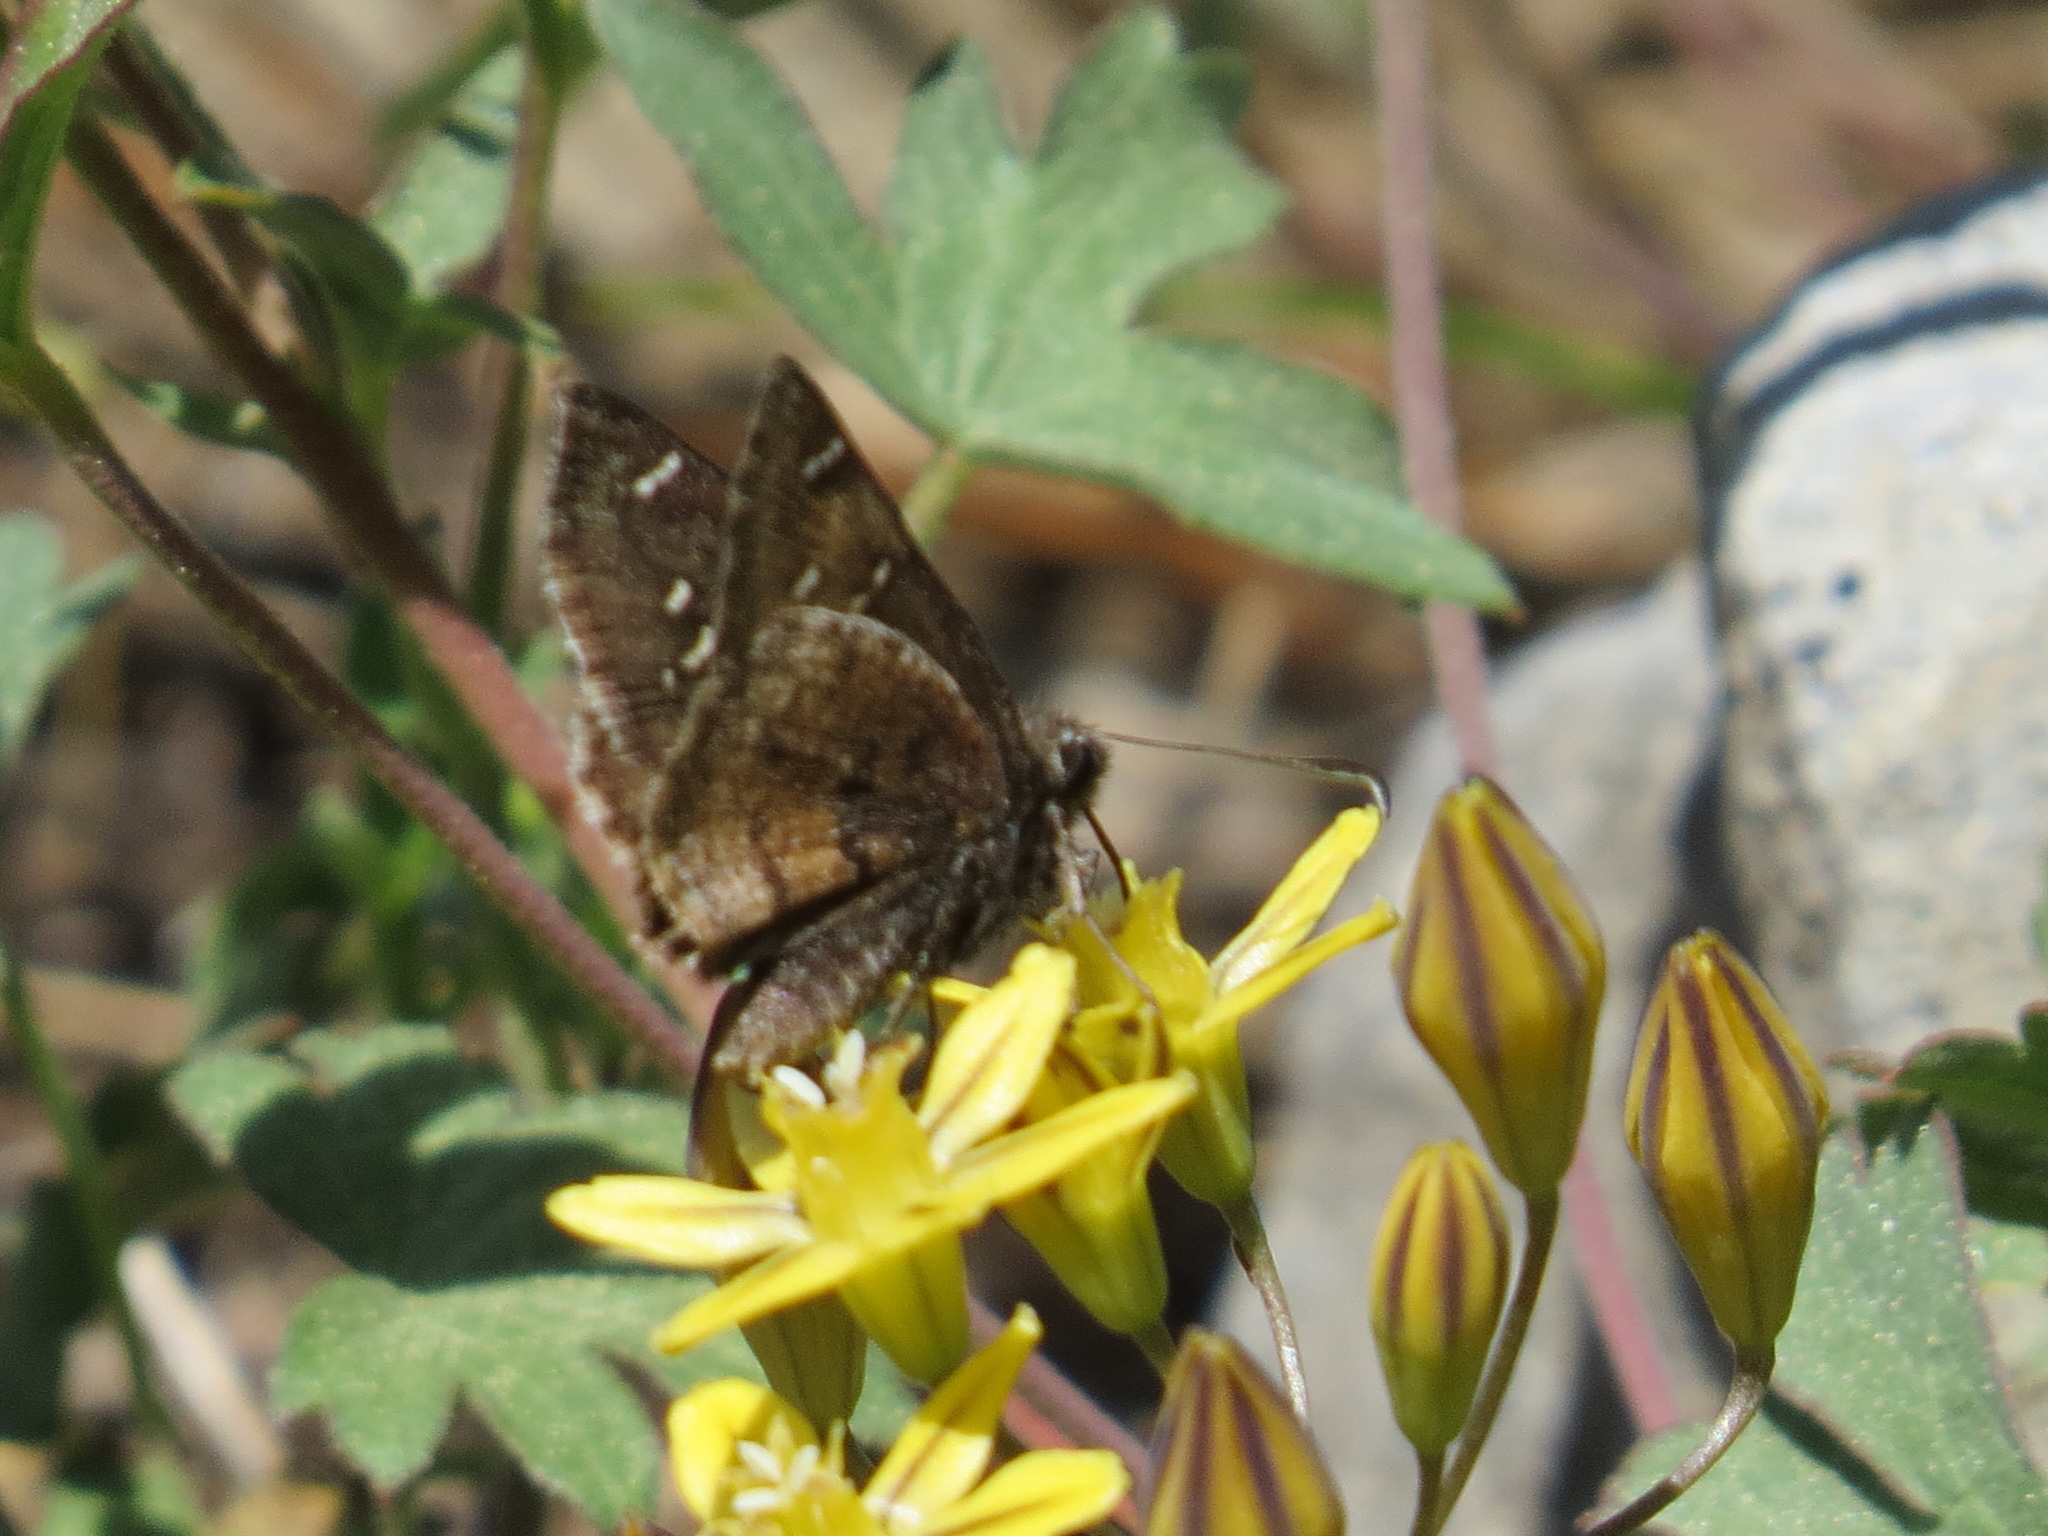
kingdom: Animalia
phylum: Arthropoda
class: Insecta
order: Lepidoptera
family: Hesperiidae
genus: Thorybes
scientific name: Thorybes mexicana
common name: Mexican cloudywing
